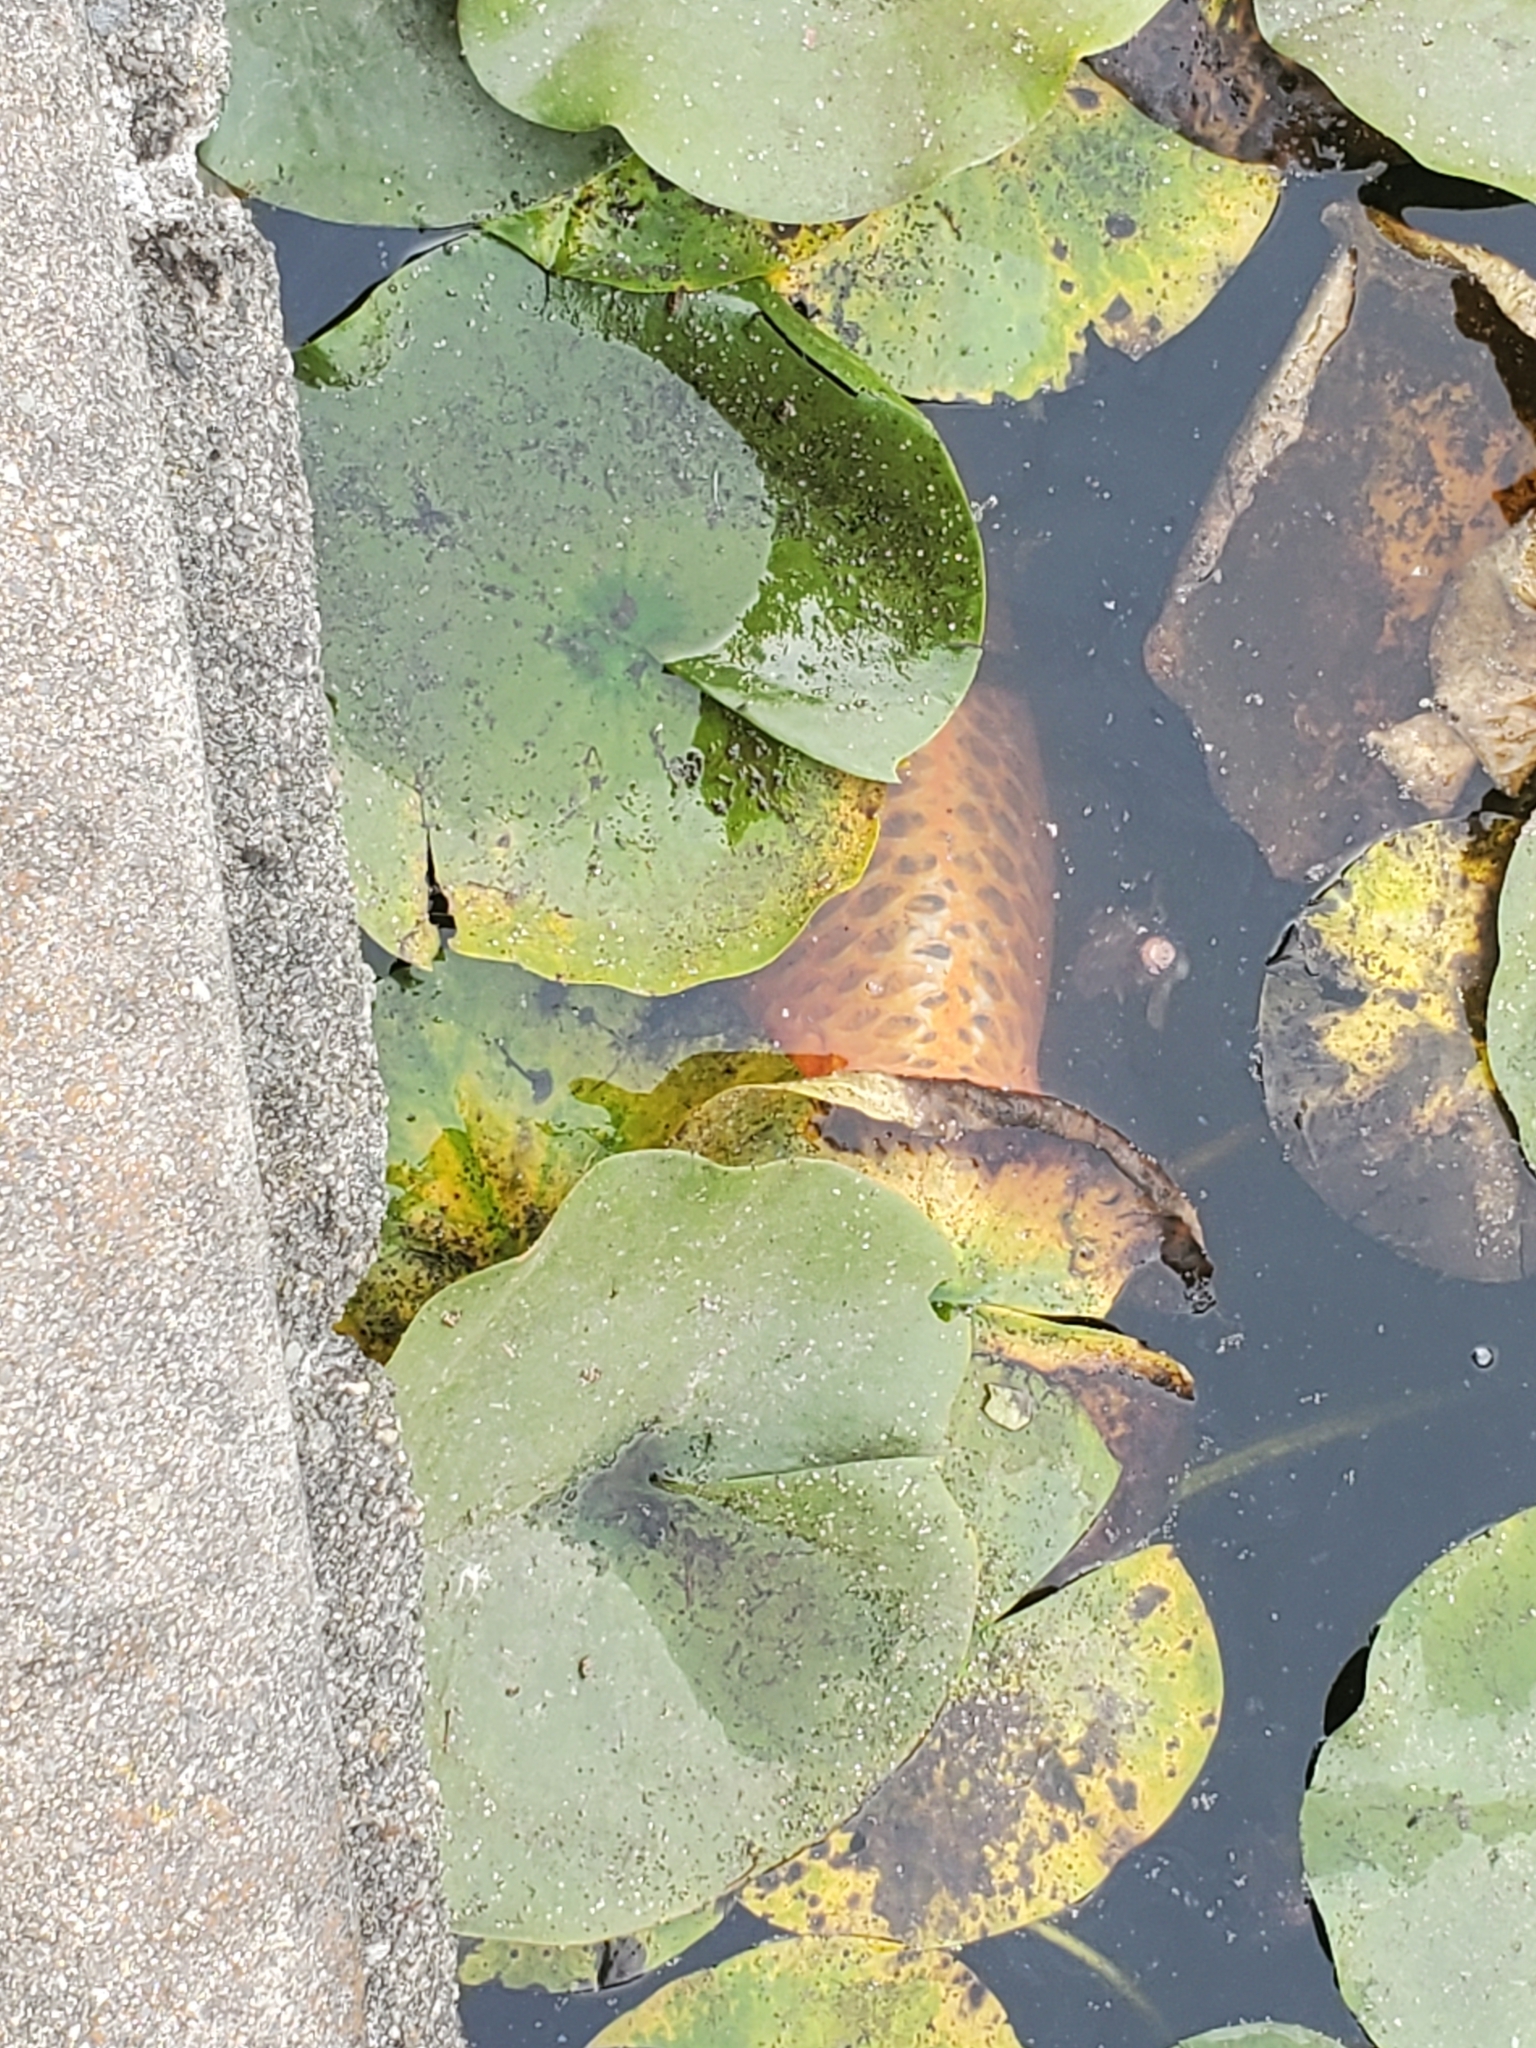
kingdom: Animalia
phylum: Chordata
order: Cypriniformes
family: Cyprinidae
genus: Cyprinus
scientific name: Cyprinus rubrofuscus
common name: Koi
